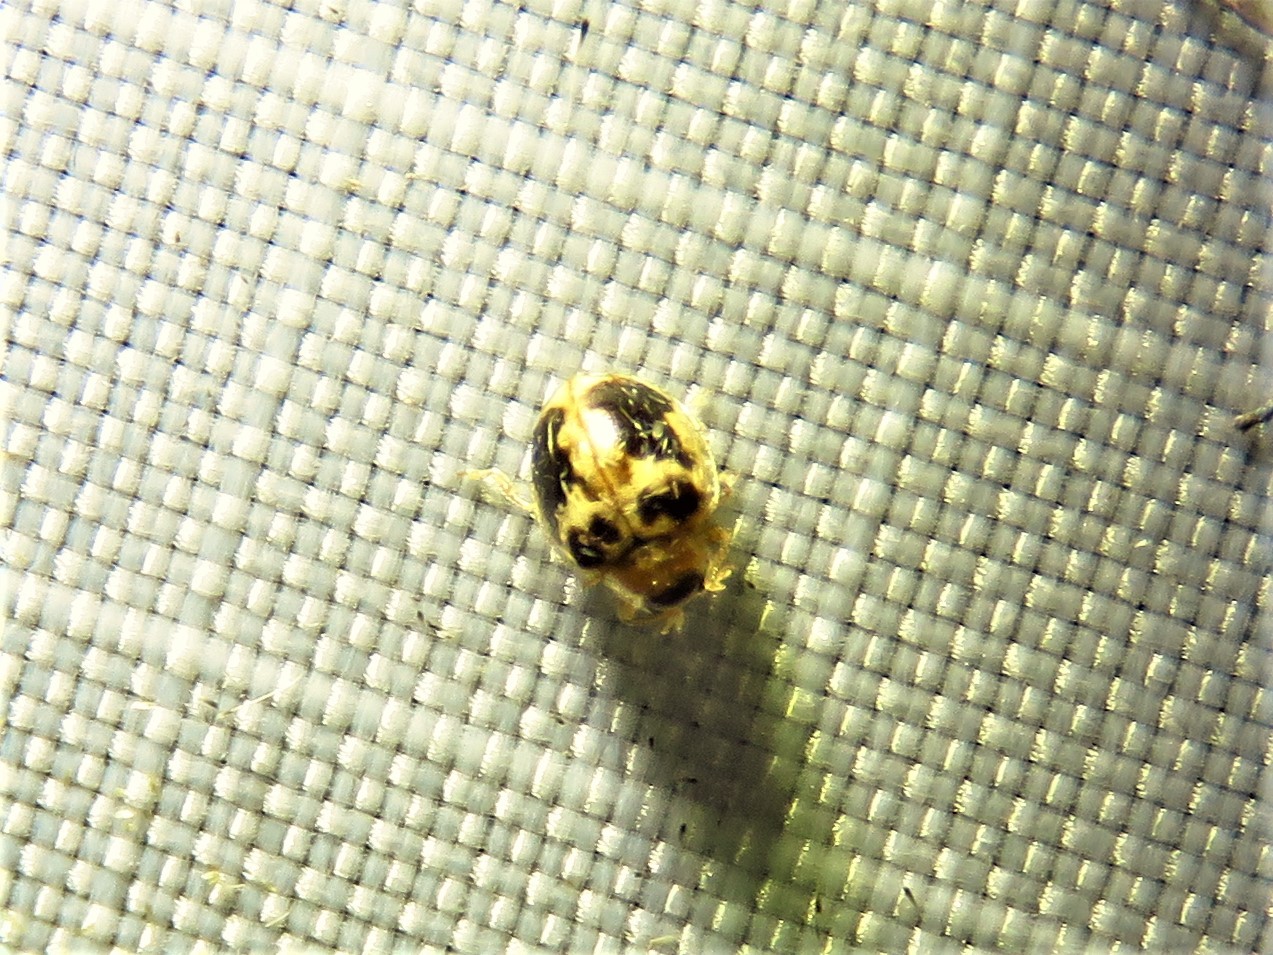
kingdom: Animalia
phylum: Arthropoda
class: Insecta
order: Coleoptera
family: Coccinellidae
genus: Psyllobora
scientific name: Psyllobora renifer
